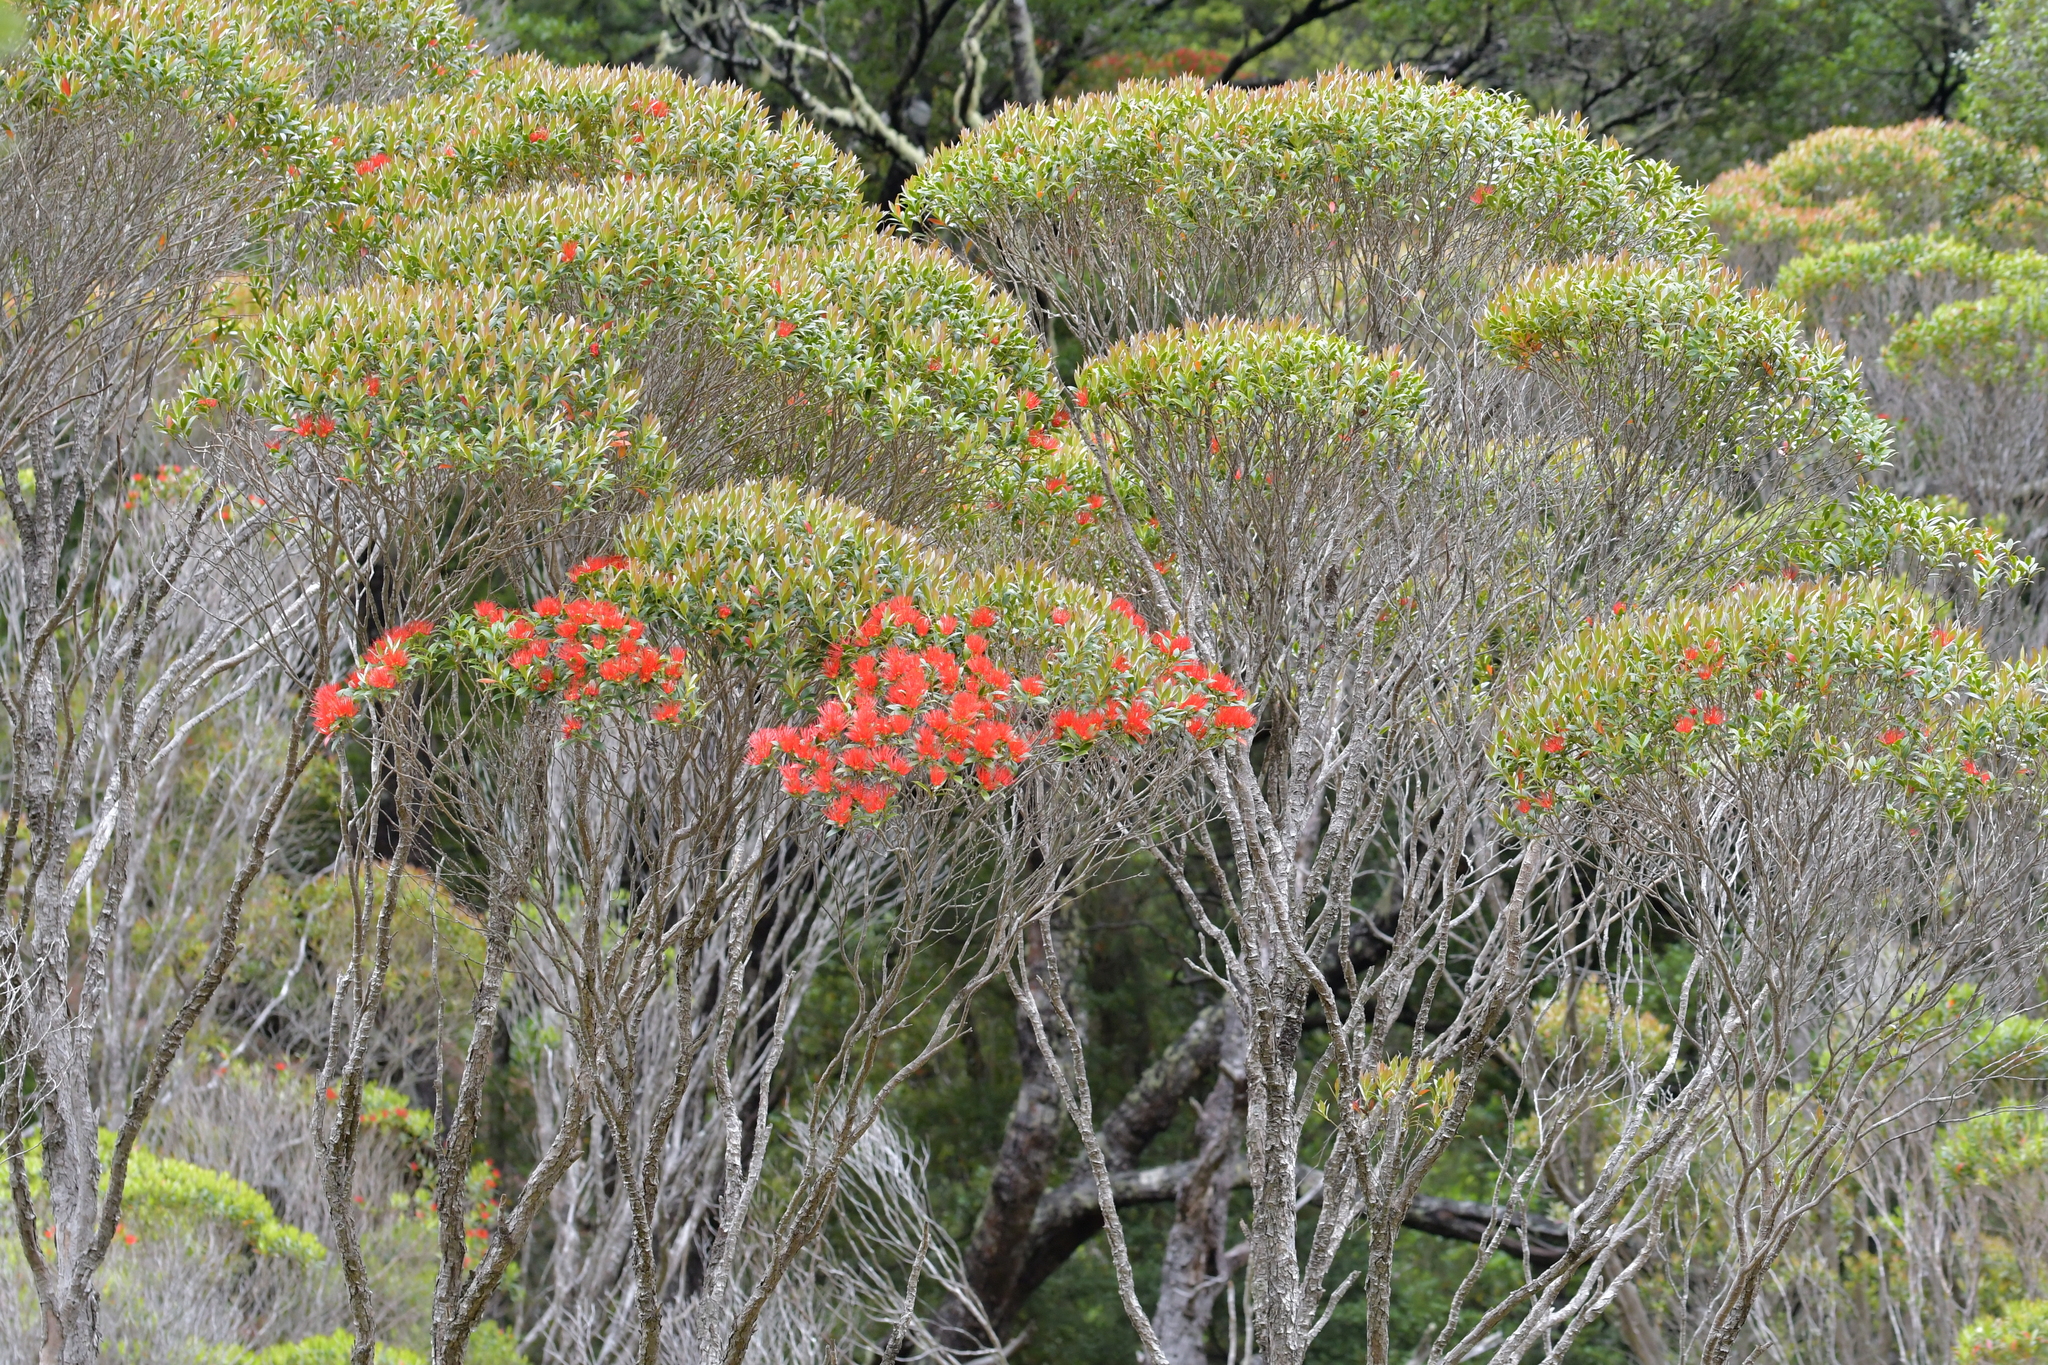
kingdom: Plantae
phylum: Tracheophyta
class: Magnoliopsida
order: Myrtales
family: Myrtaceae
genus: Metrosideros
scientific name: Metrosideros umbellata
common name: Southern rata
